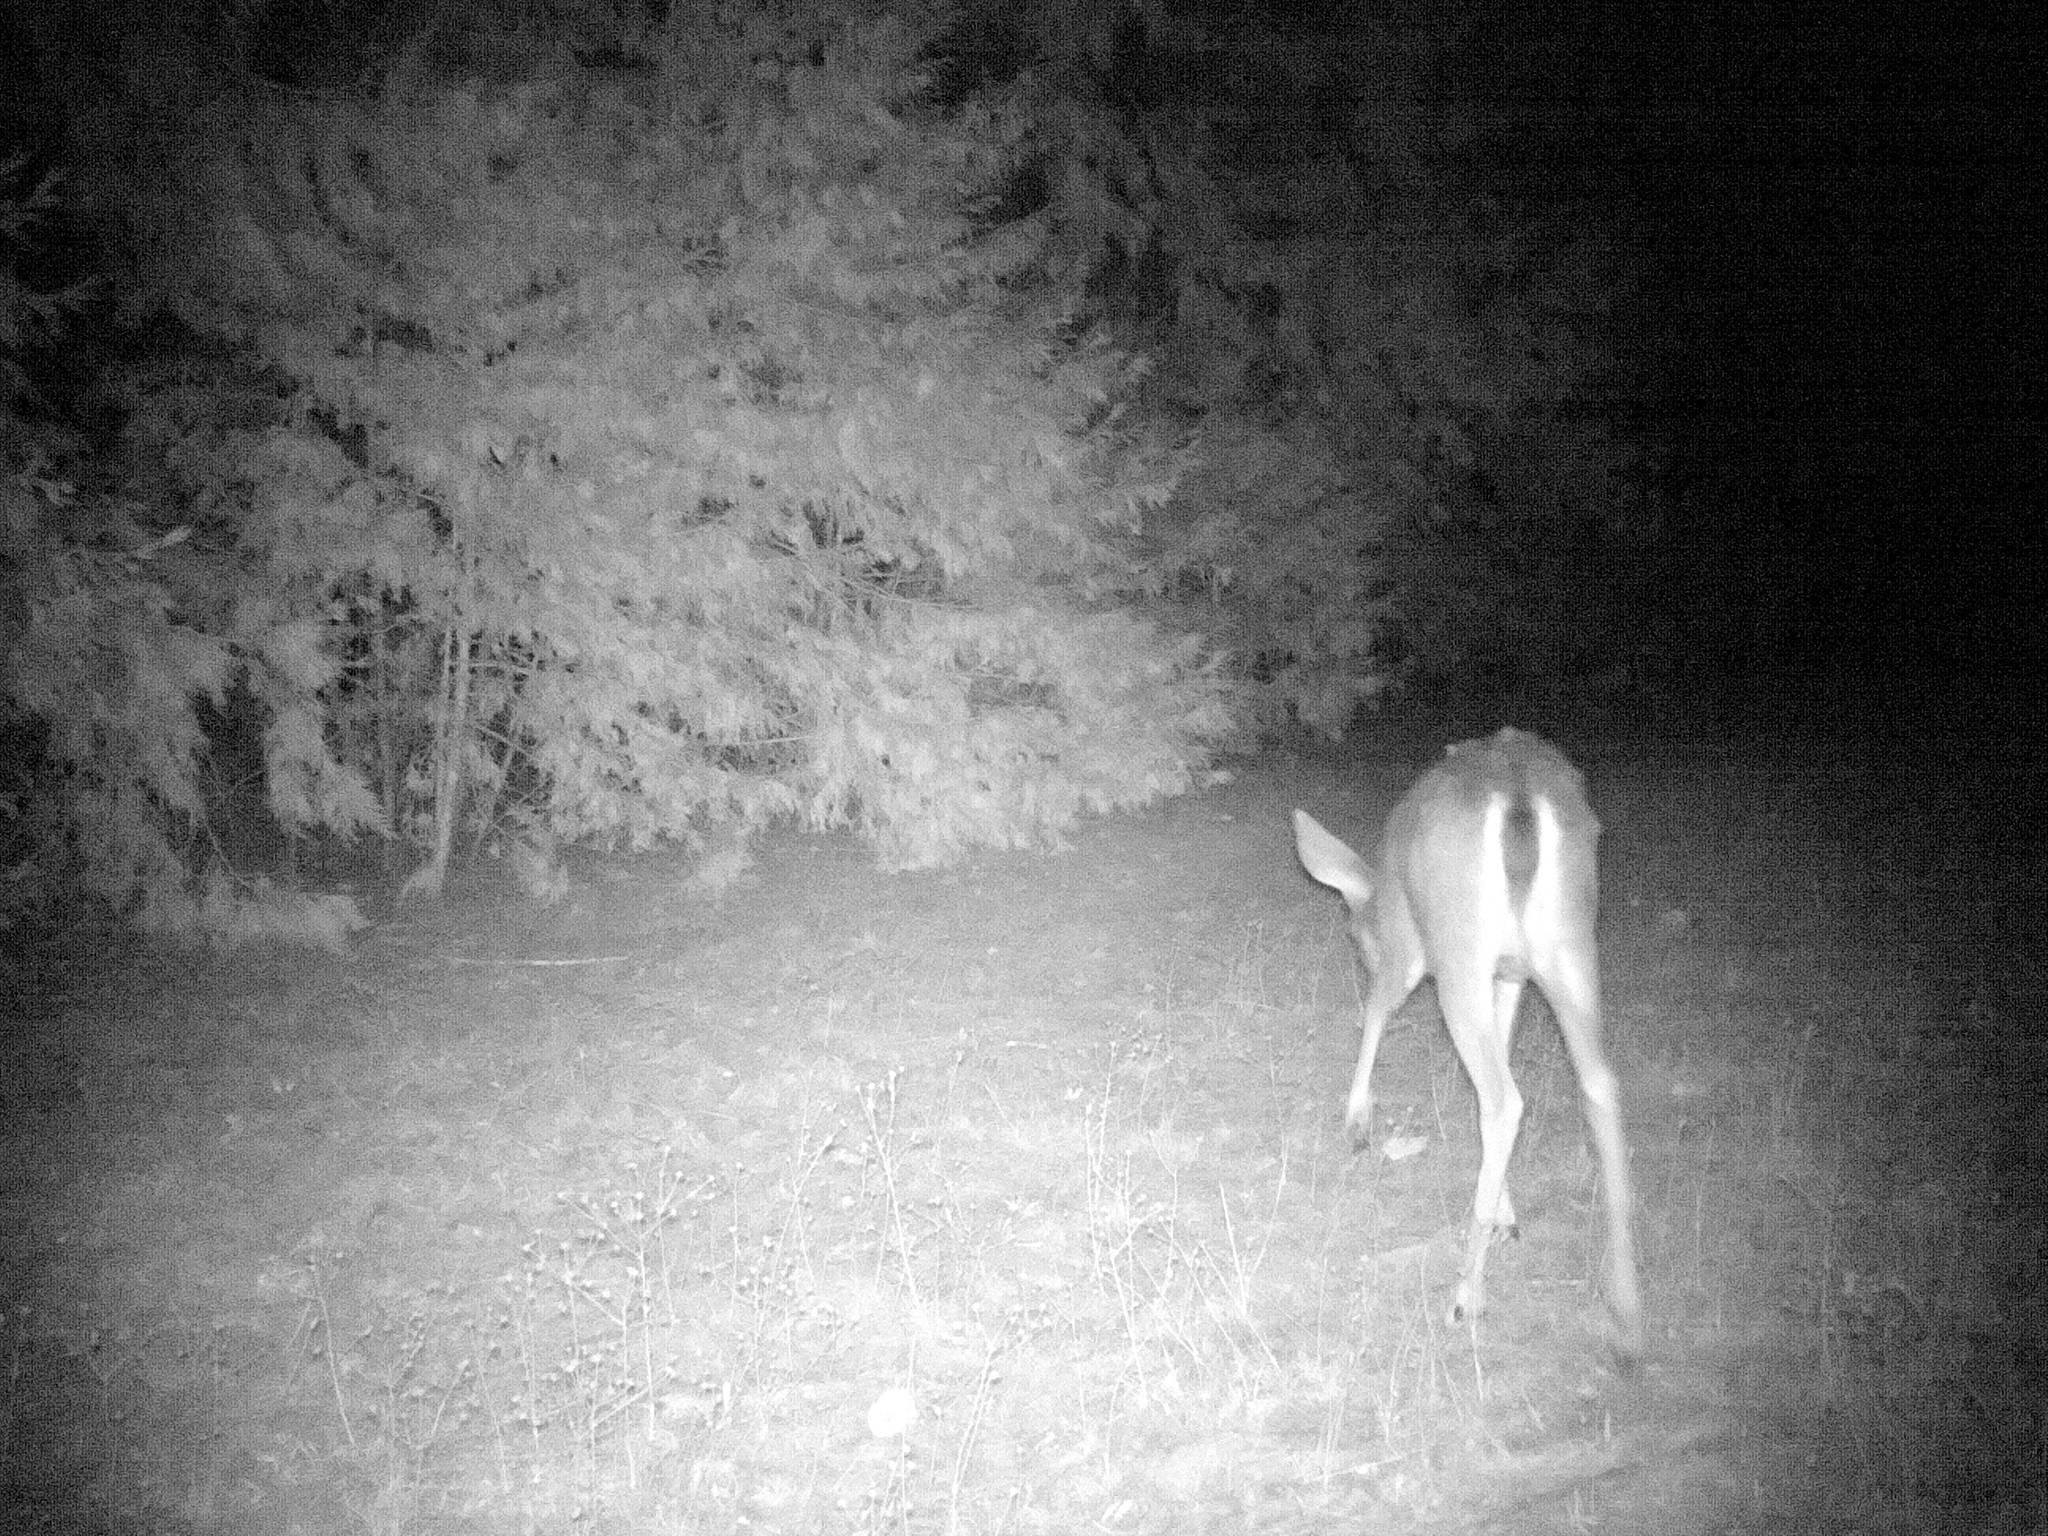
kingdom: Animalia
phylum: Chordata
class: Mammalia
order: Artiodactyla
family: Cervidae
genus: Odocoileus
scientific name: Odocoileus hemionus
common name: Mule deer
